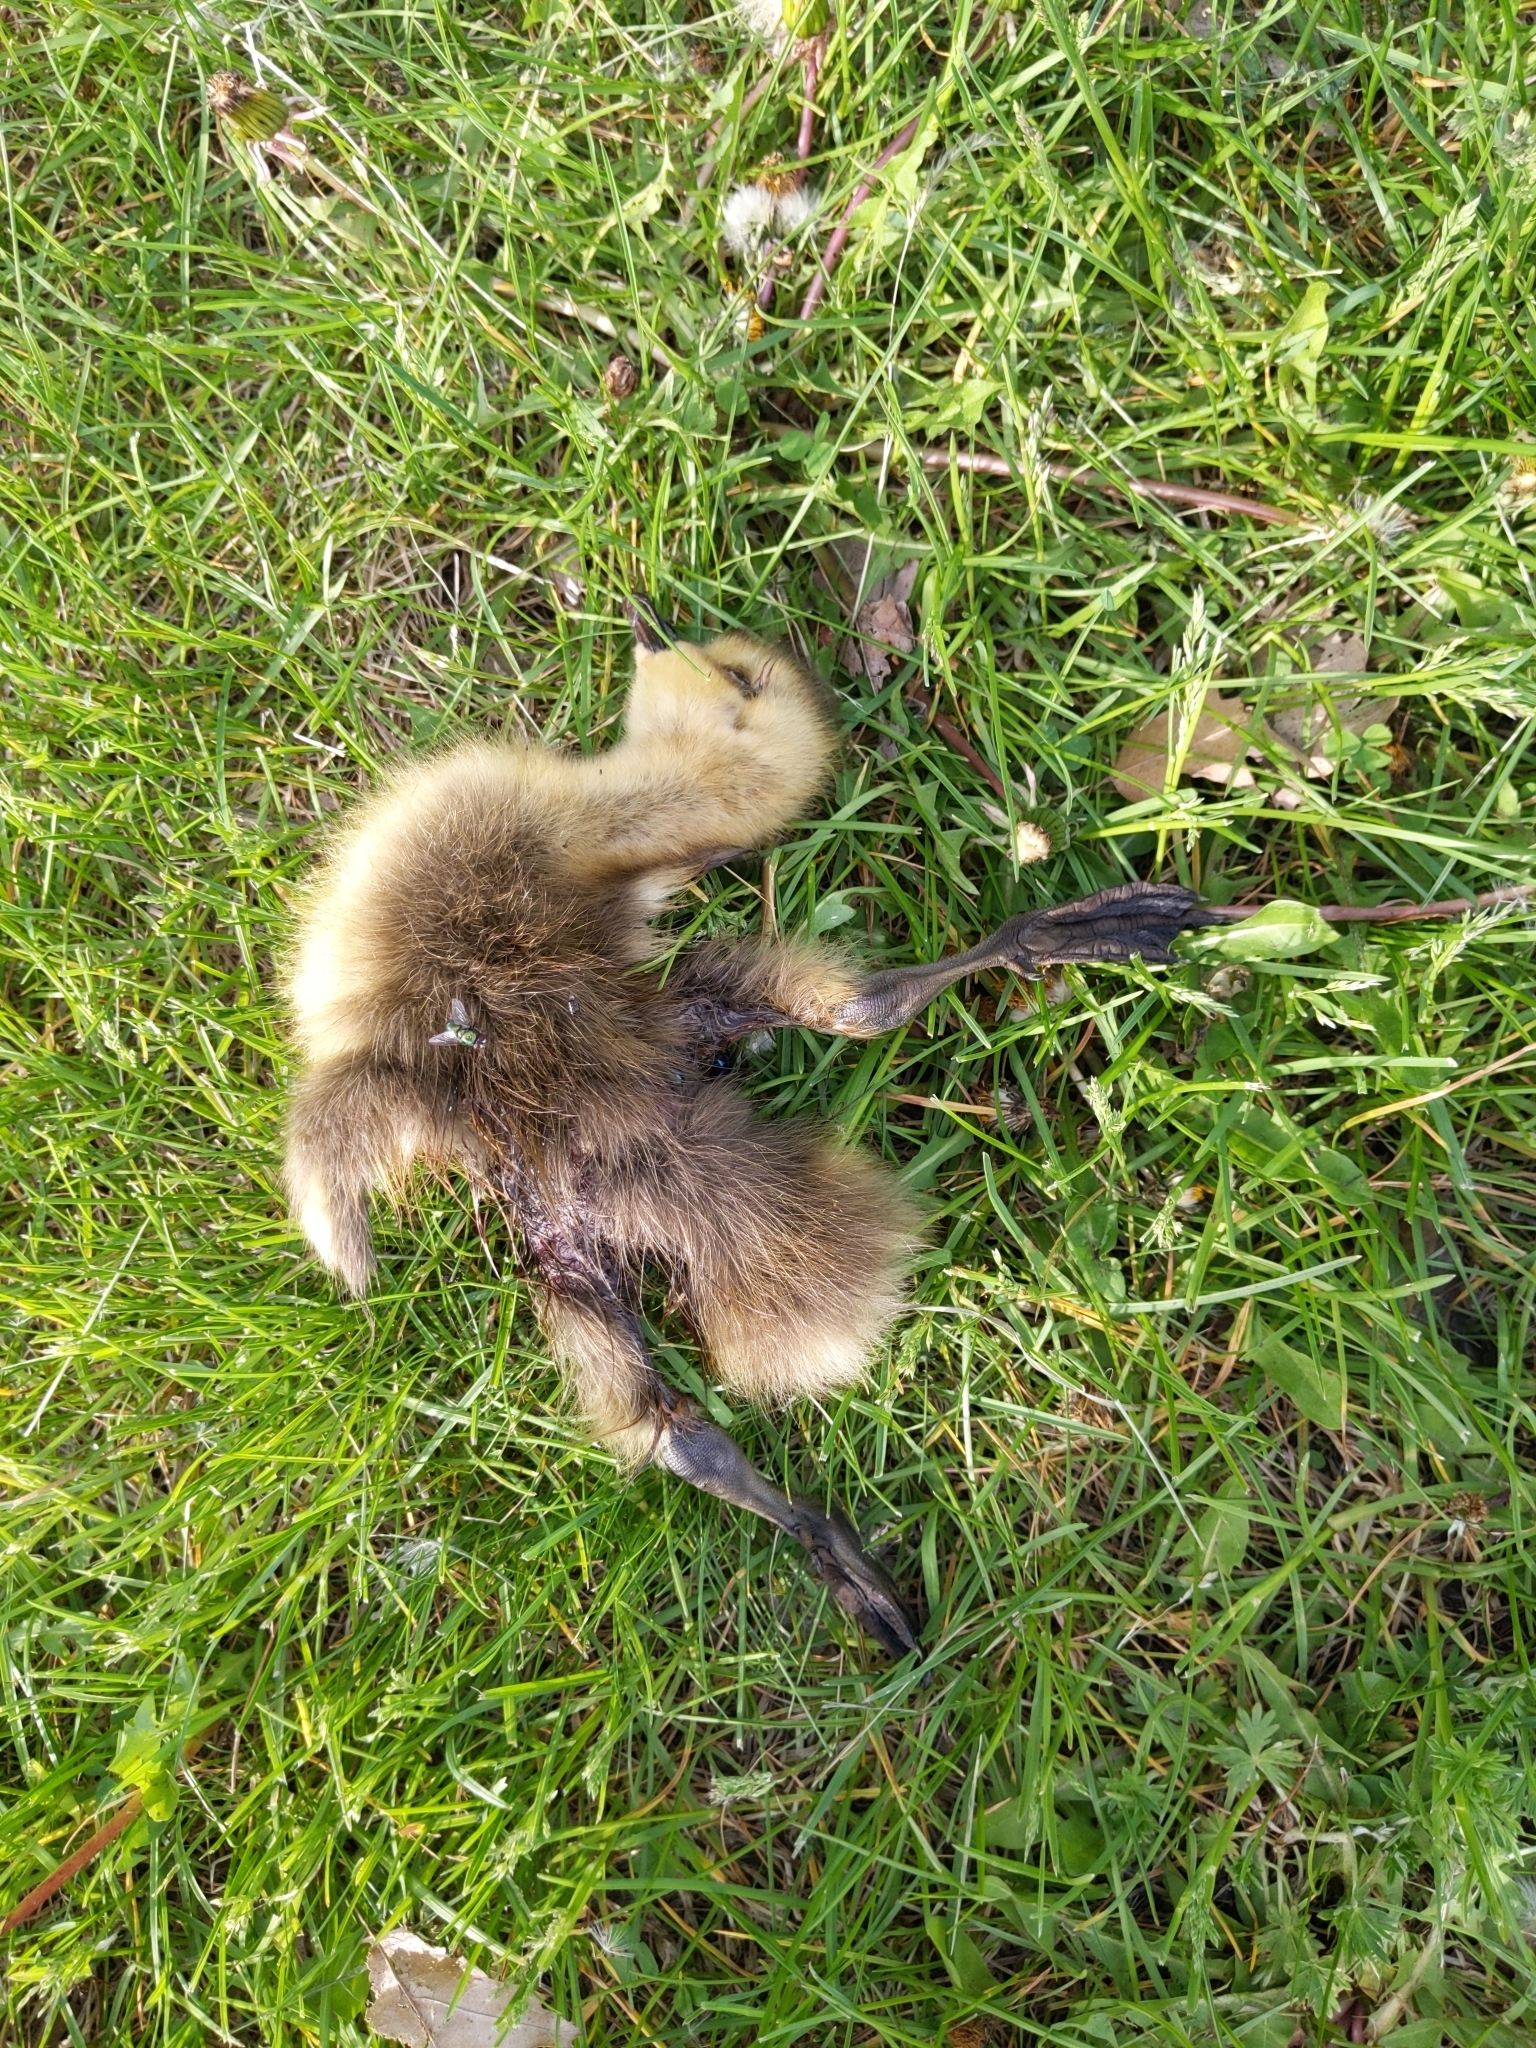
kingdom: Animalia
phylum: Chordata
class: Aves
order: Anseriformes
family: Anatidae
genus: Branta
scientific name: Branta canadensis
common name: Canada goose
